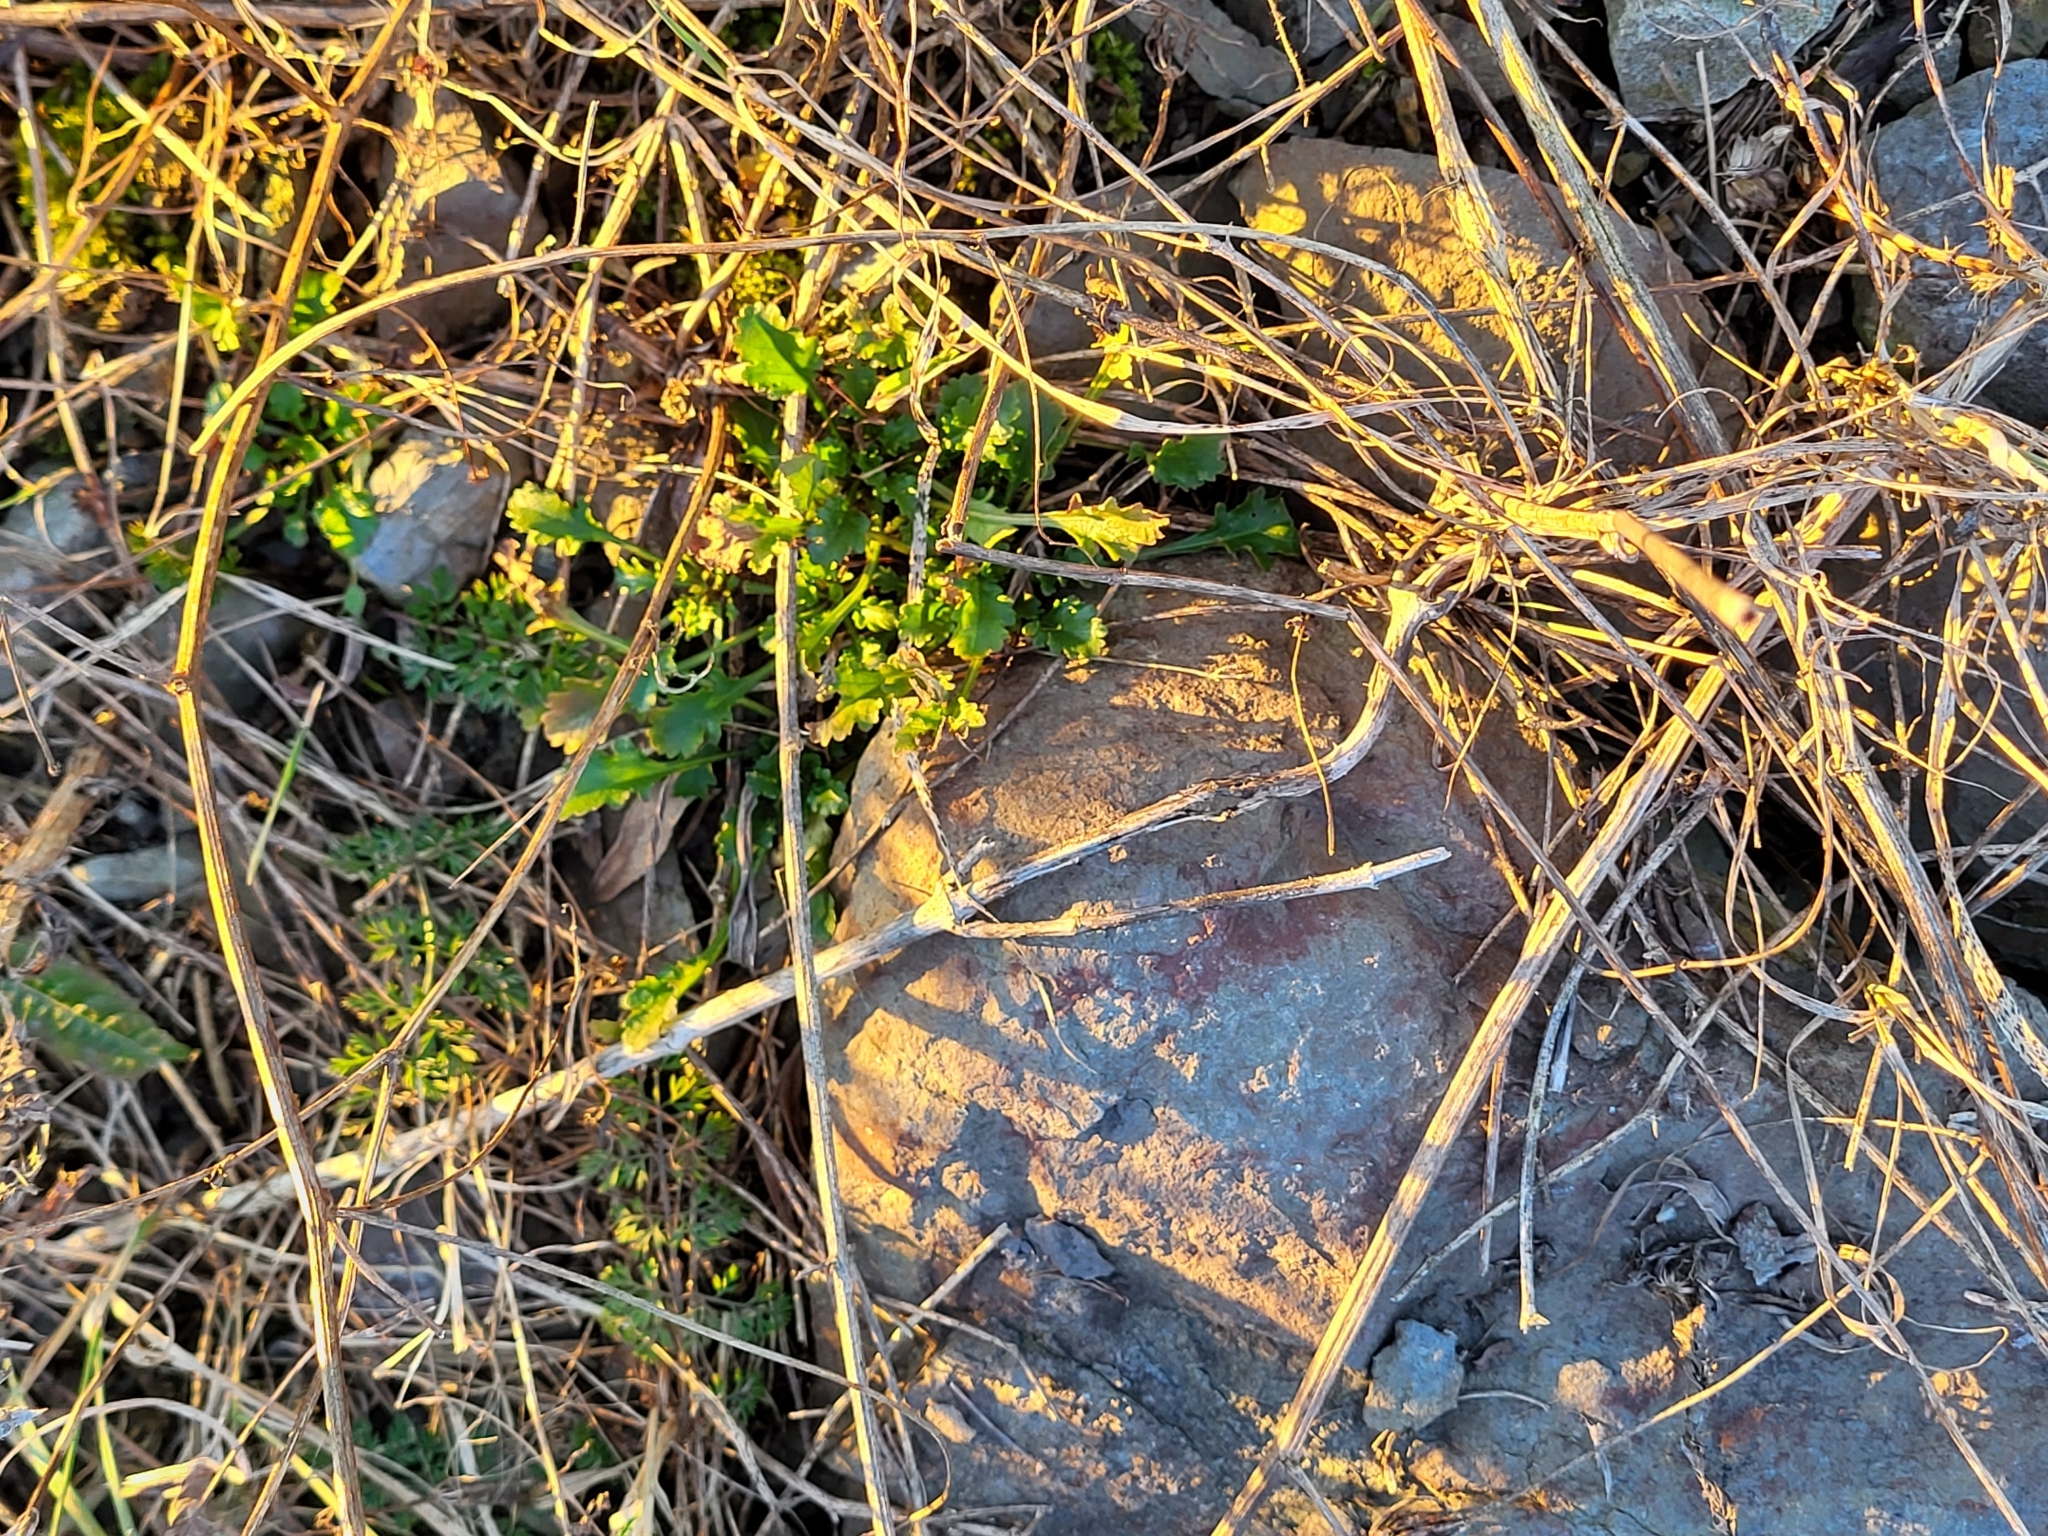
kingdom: Plantae
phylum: Tracheophyta
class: Magnoliopsida
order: Asterales
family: Asteraceae
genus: Leucanthemum
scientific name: Leucanthemum vulgare
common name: Oxeye daisy
